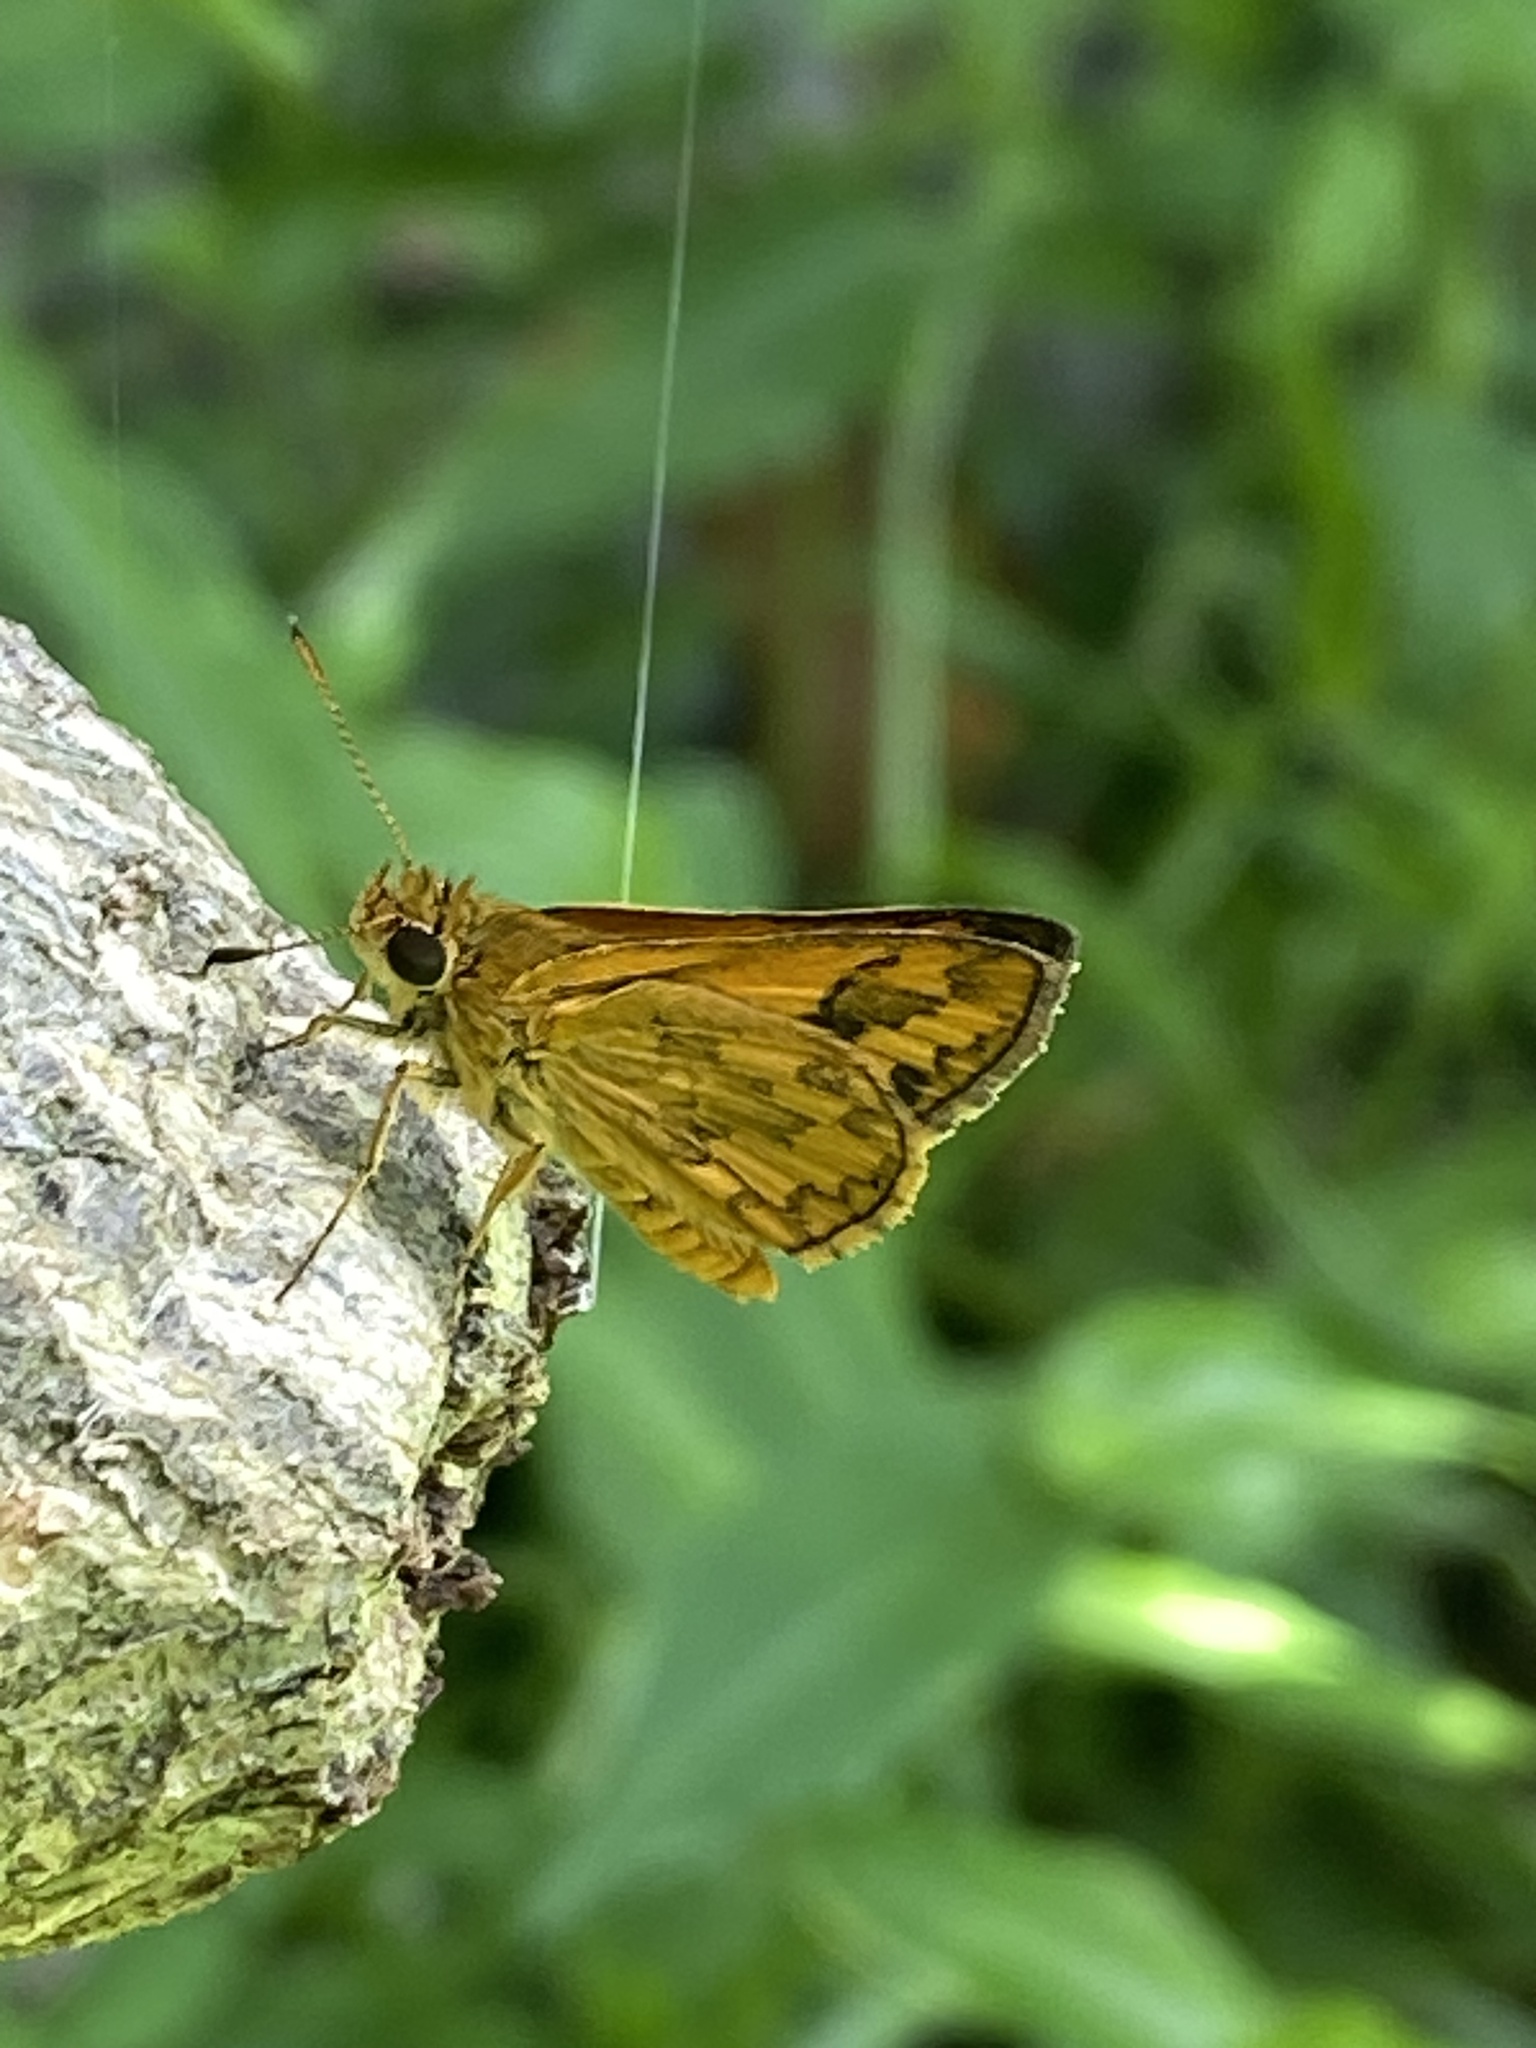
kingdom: Animalia
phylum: Arthropoda
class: Insecta
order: Lepidoptera
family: Hesperiidae
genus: Suniana
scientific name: Suniana sunias
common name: Wide-brand grass-dart
